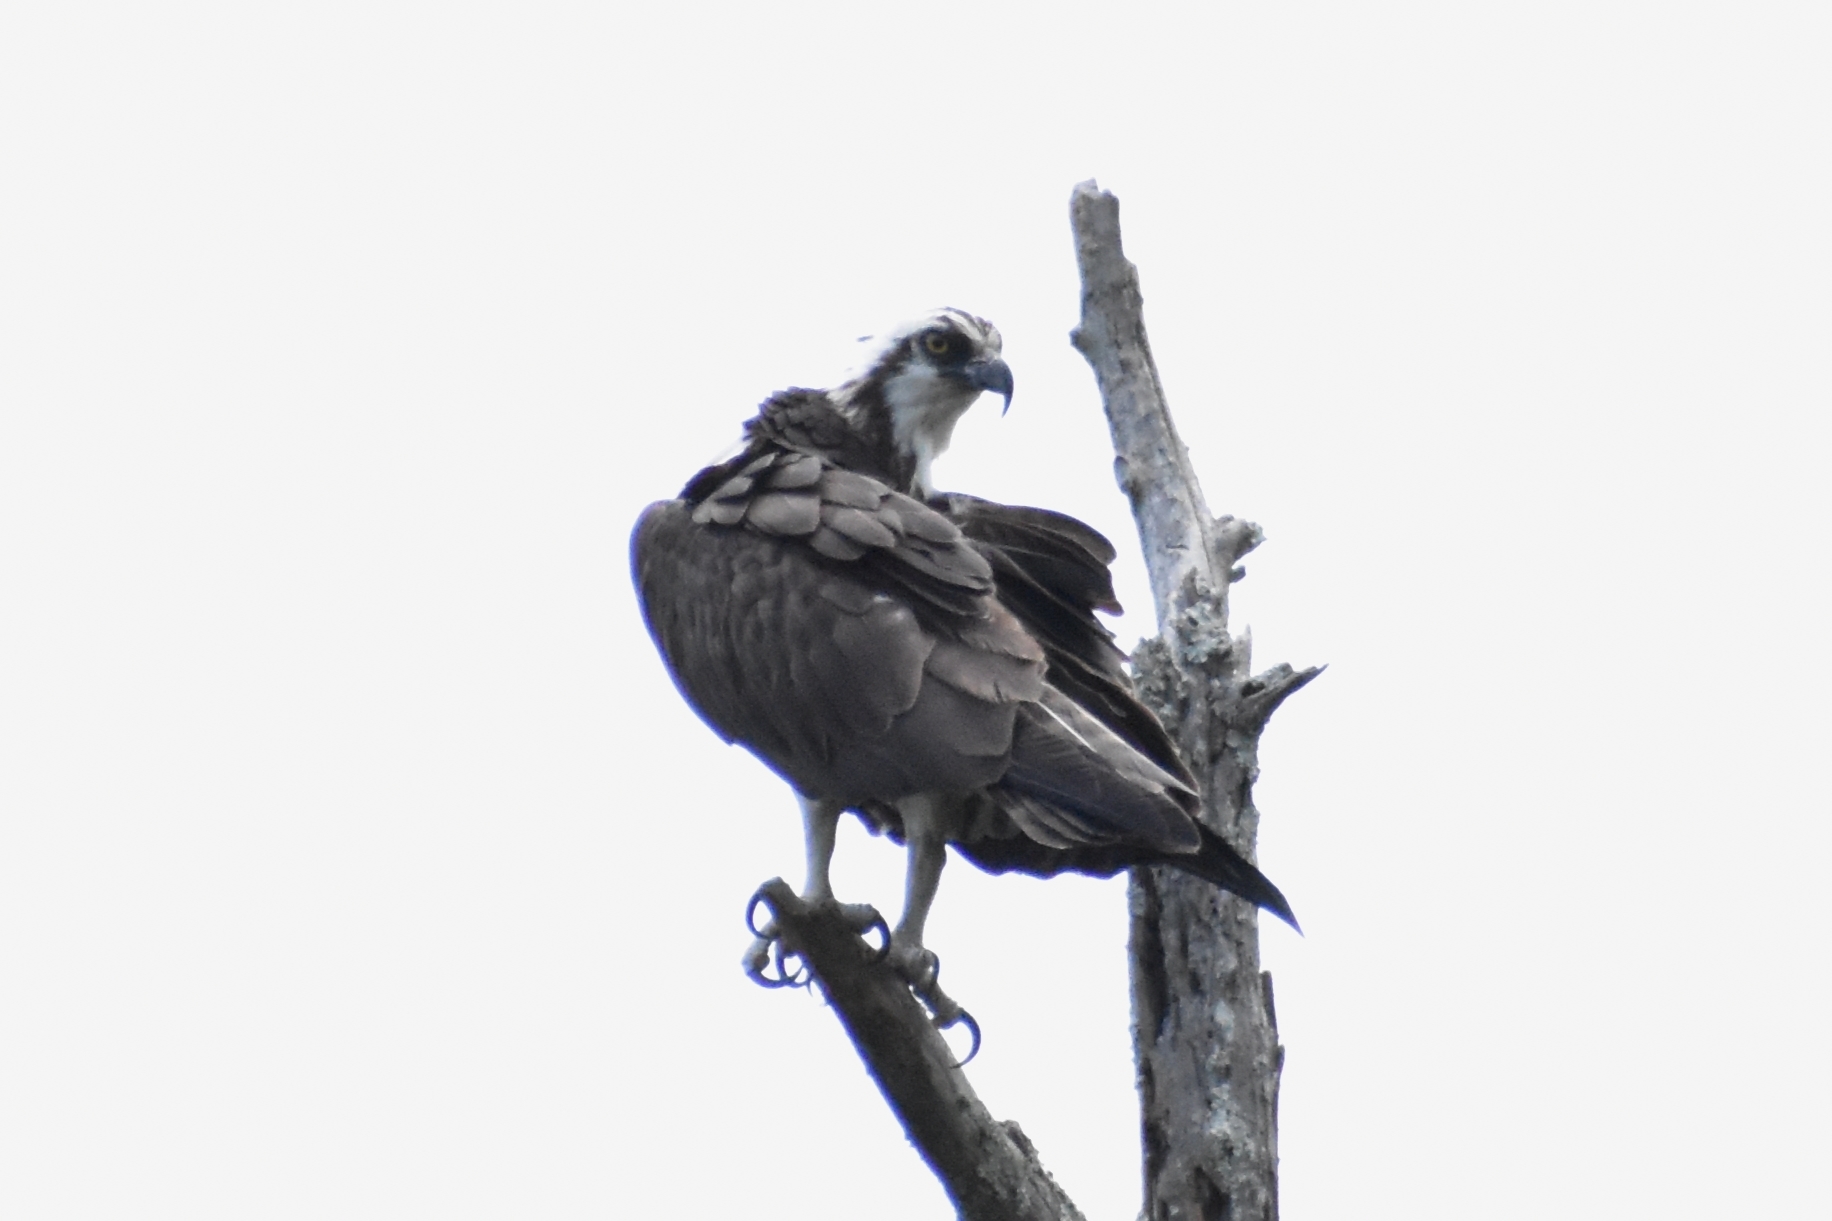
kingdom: Animalia
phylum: Chordata
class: Aves
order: Accipitriformes
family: Pandionidae
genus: Pandion
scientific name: Pandion haliaetus
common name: Osprey
